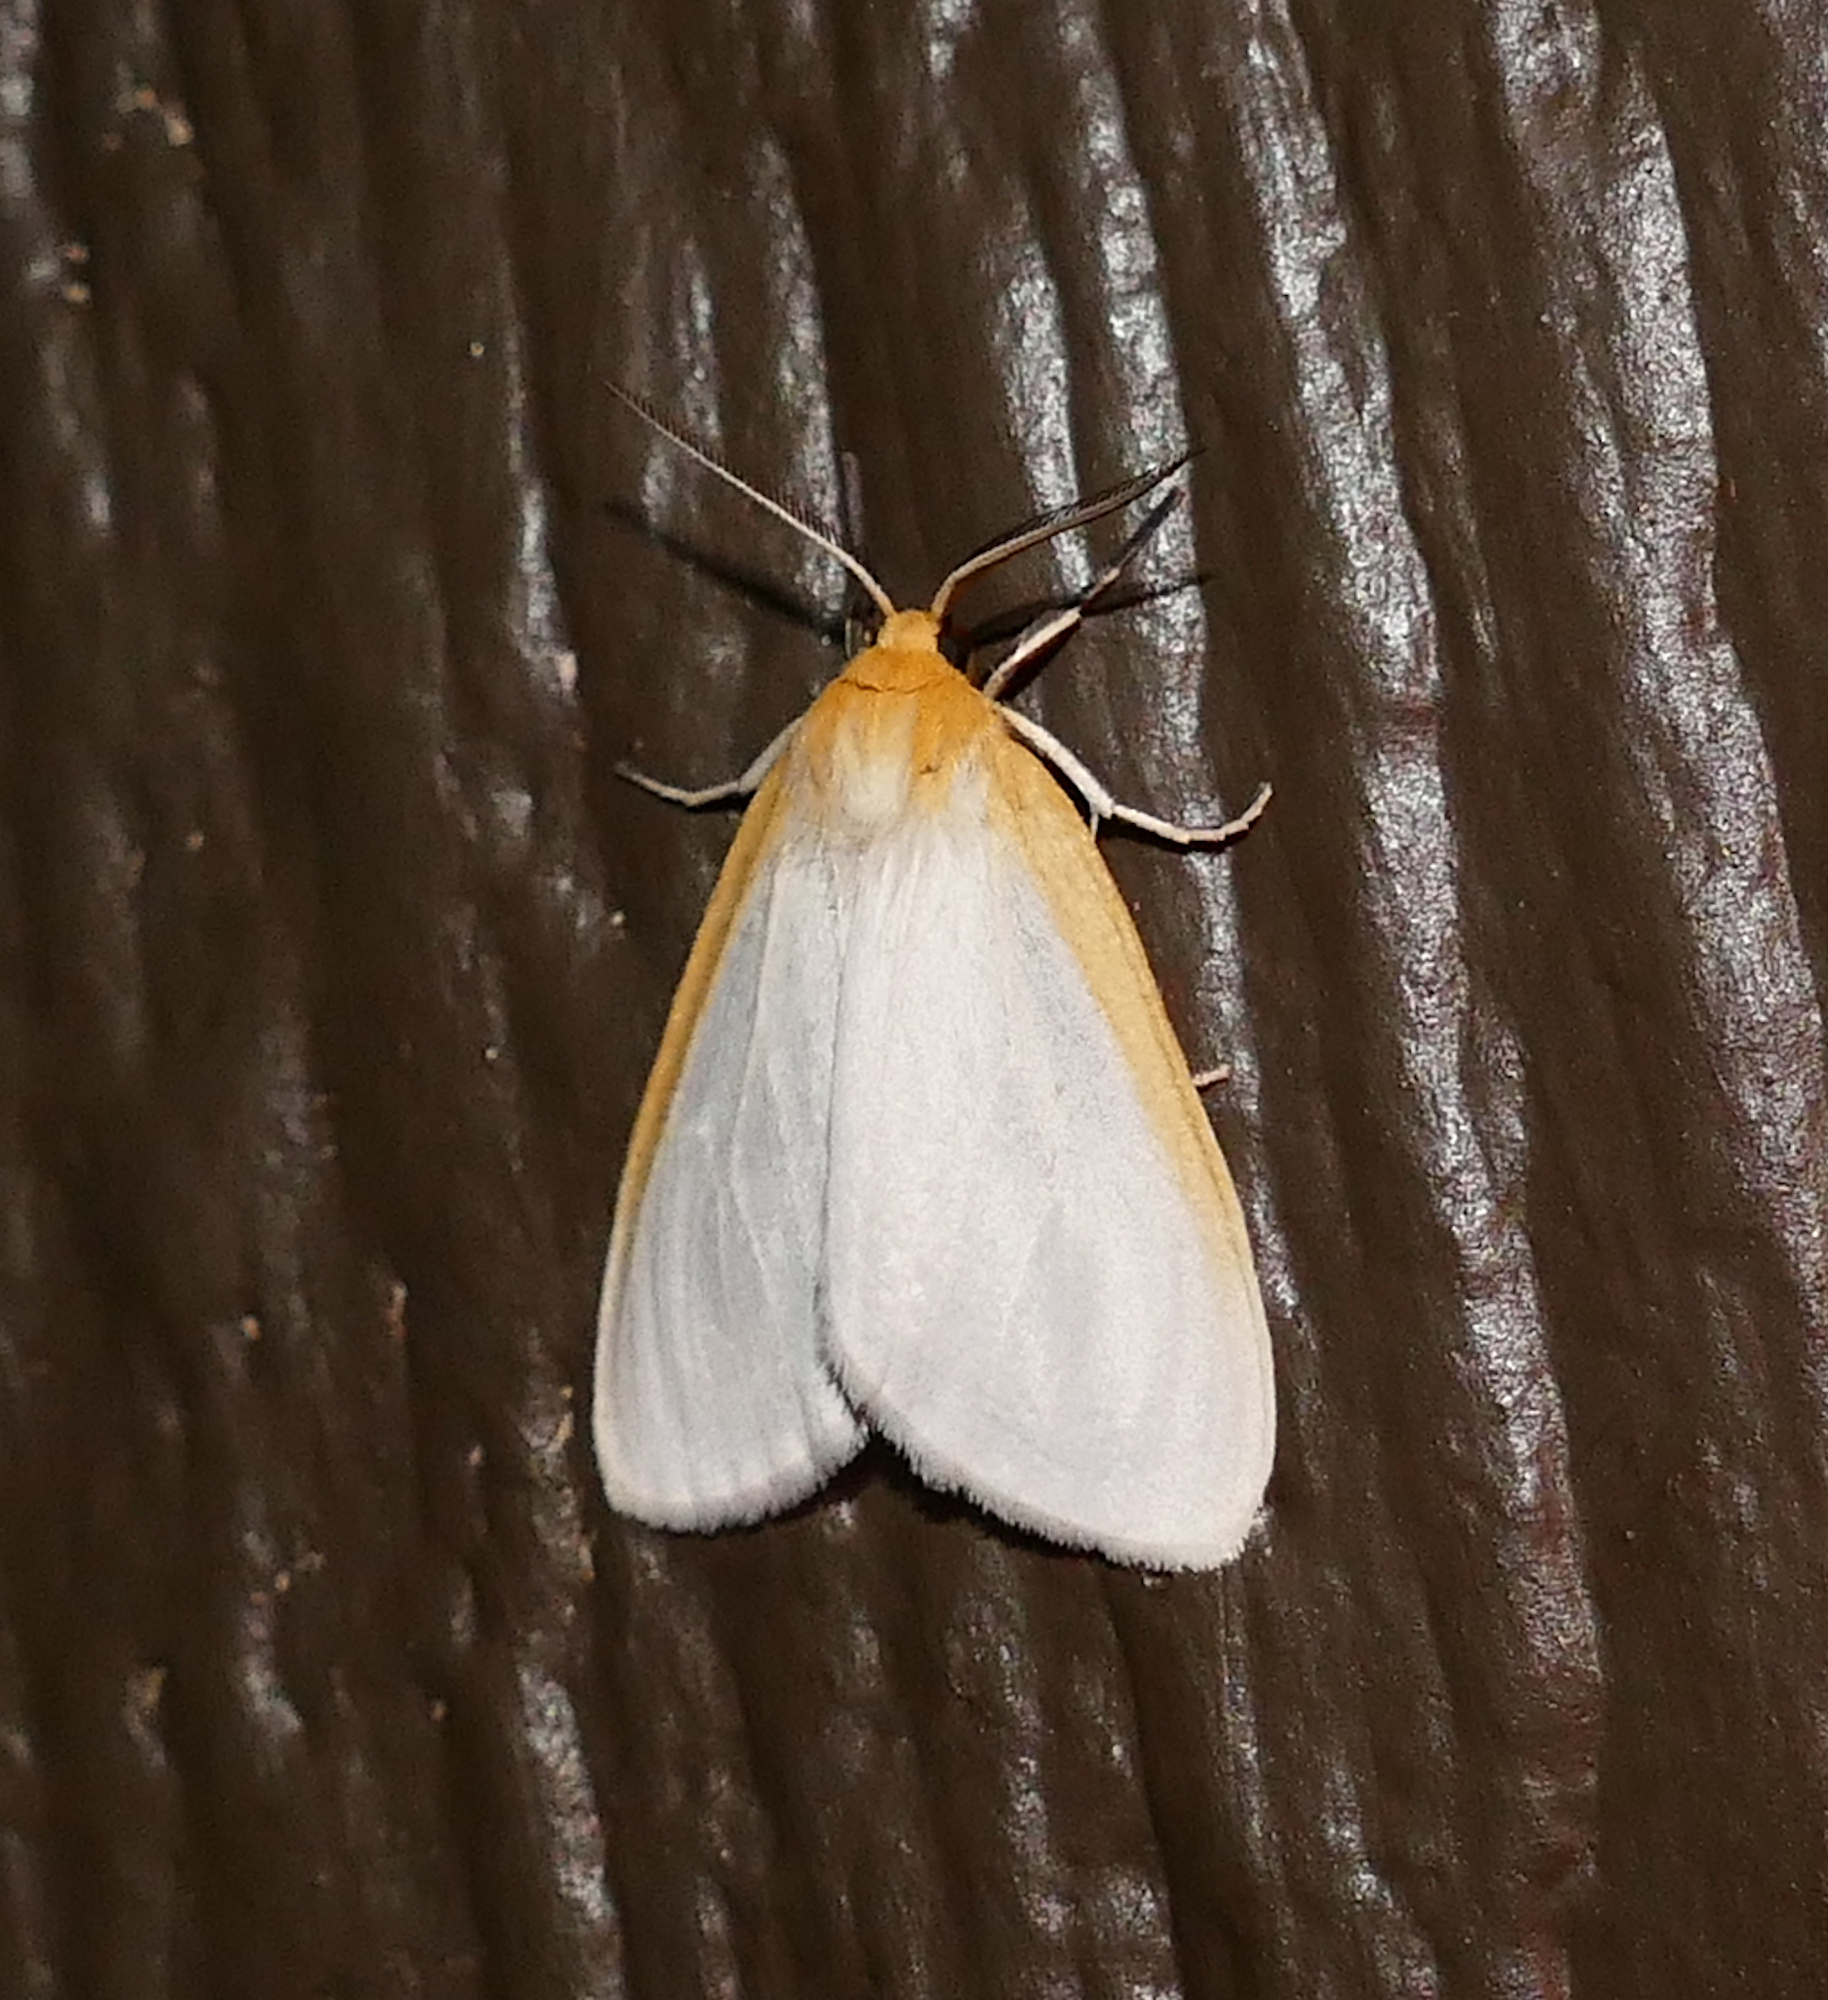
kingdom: Animalia
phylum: Arthropoda
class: Insecta
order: Lepidoptera
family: Erebidae
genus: Cycnia
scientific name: Cycnia tenera
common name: Delicate cycnia moth
